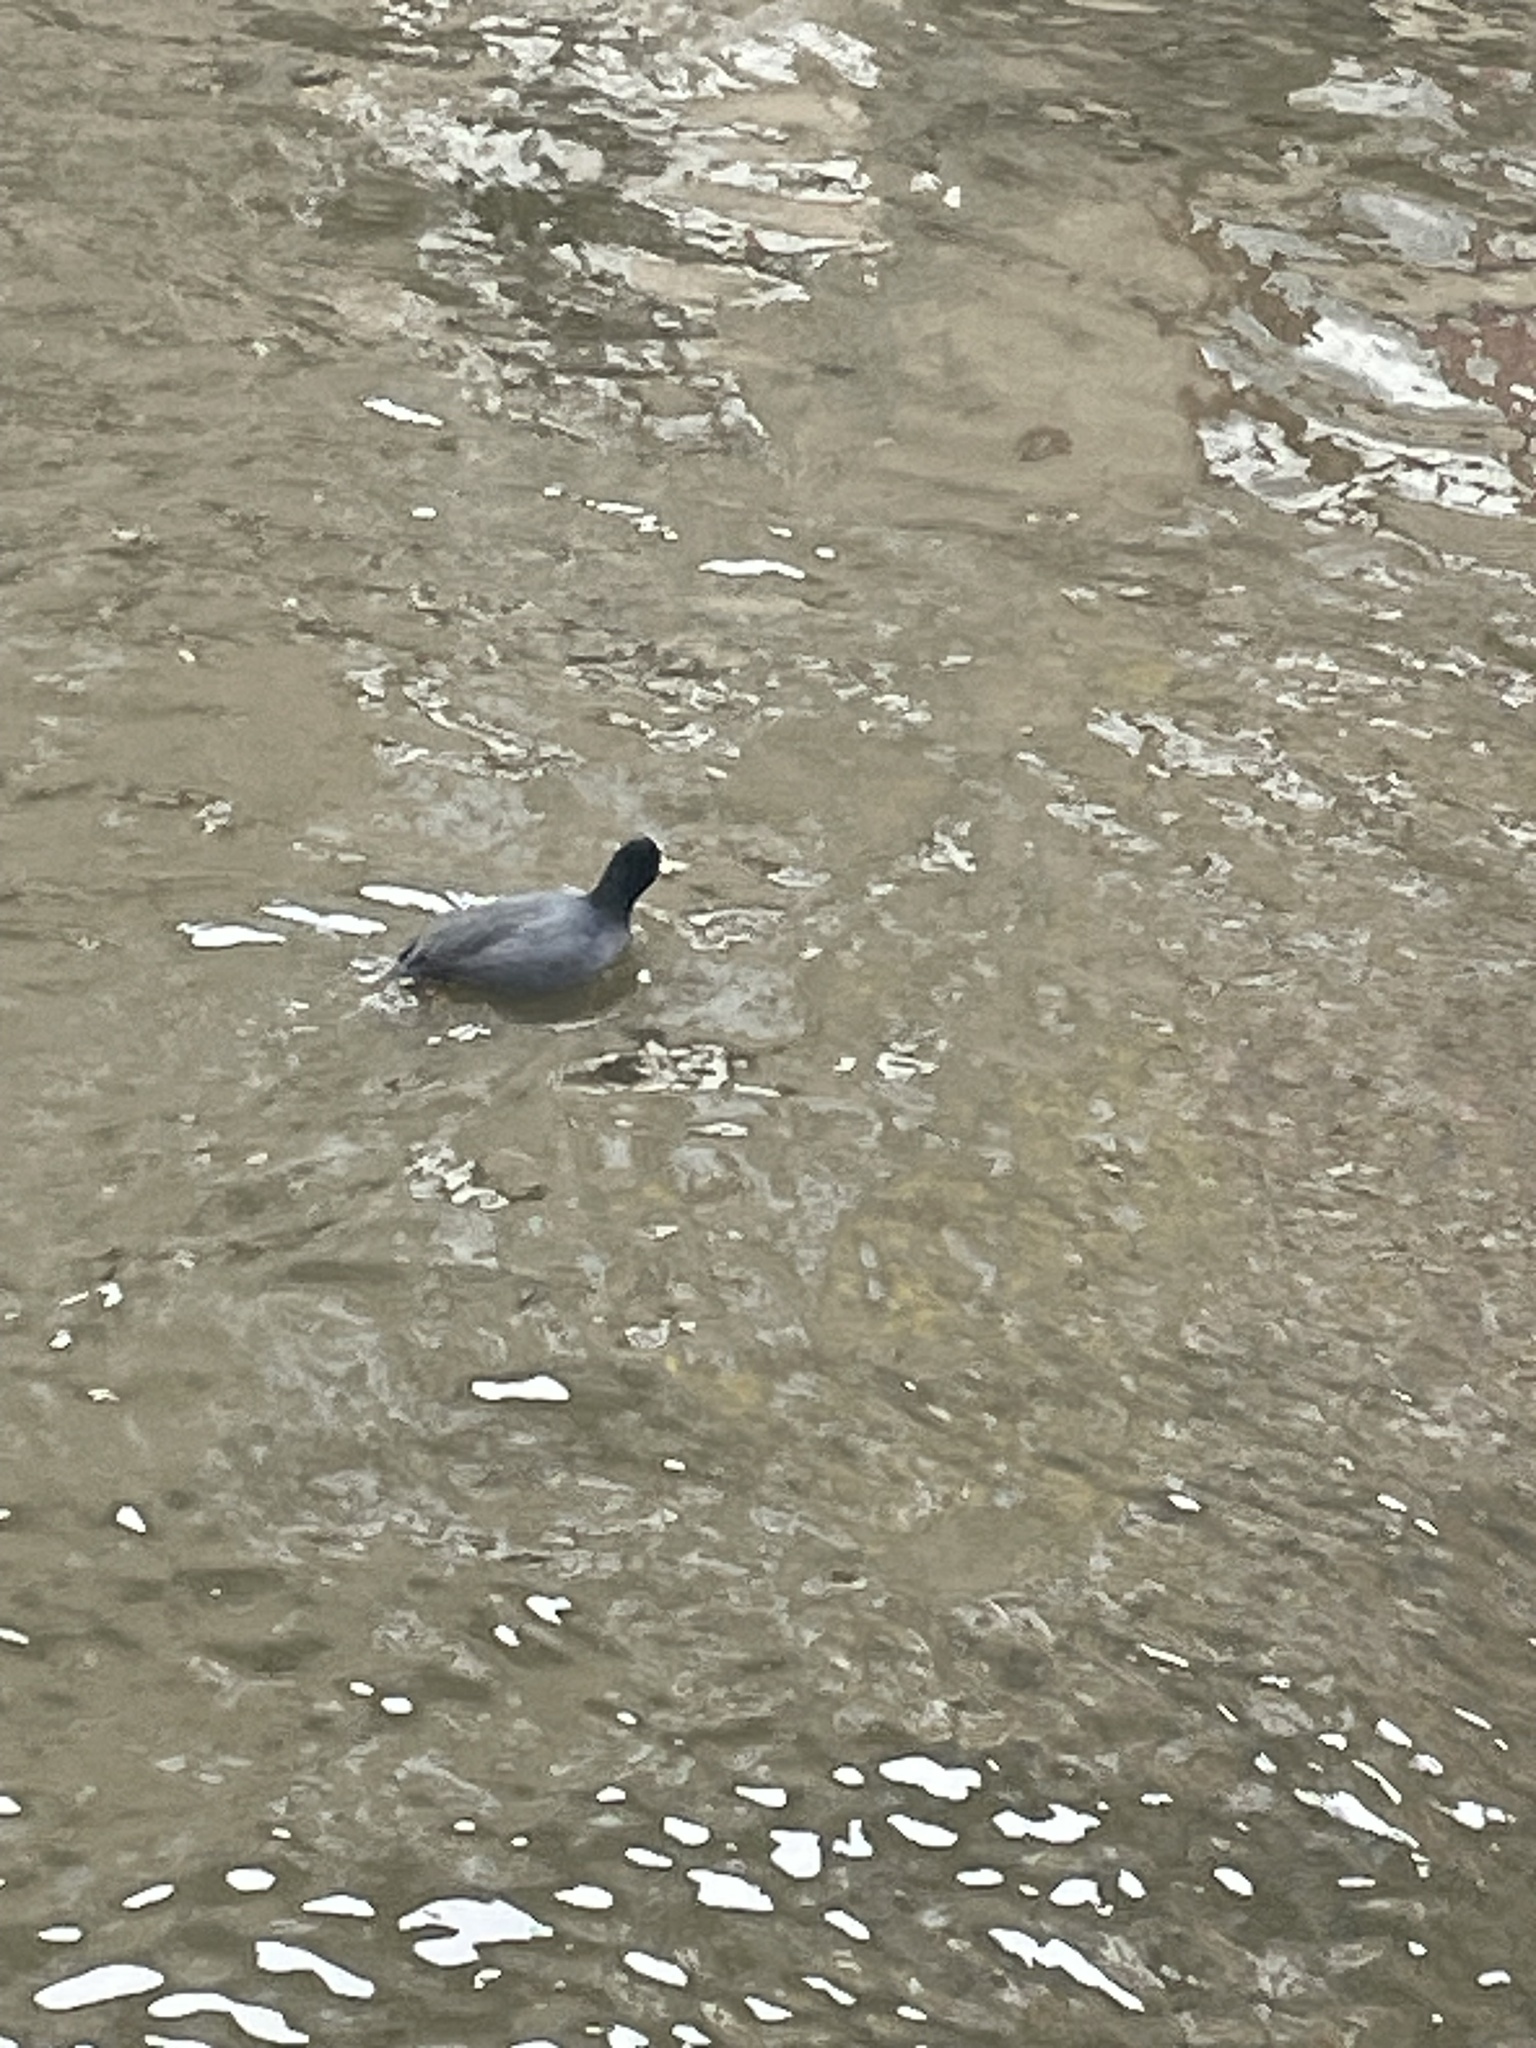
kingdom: Animalia
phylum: Chordata
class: Aves
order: Gruiformes
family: Rallidae
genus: Fulica
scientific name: Fulica atra
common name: Eurasian coot
